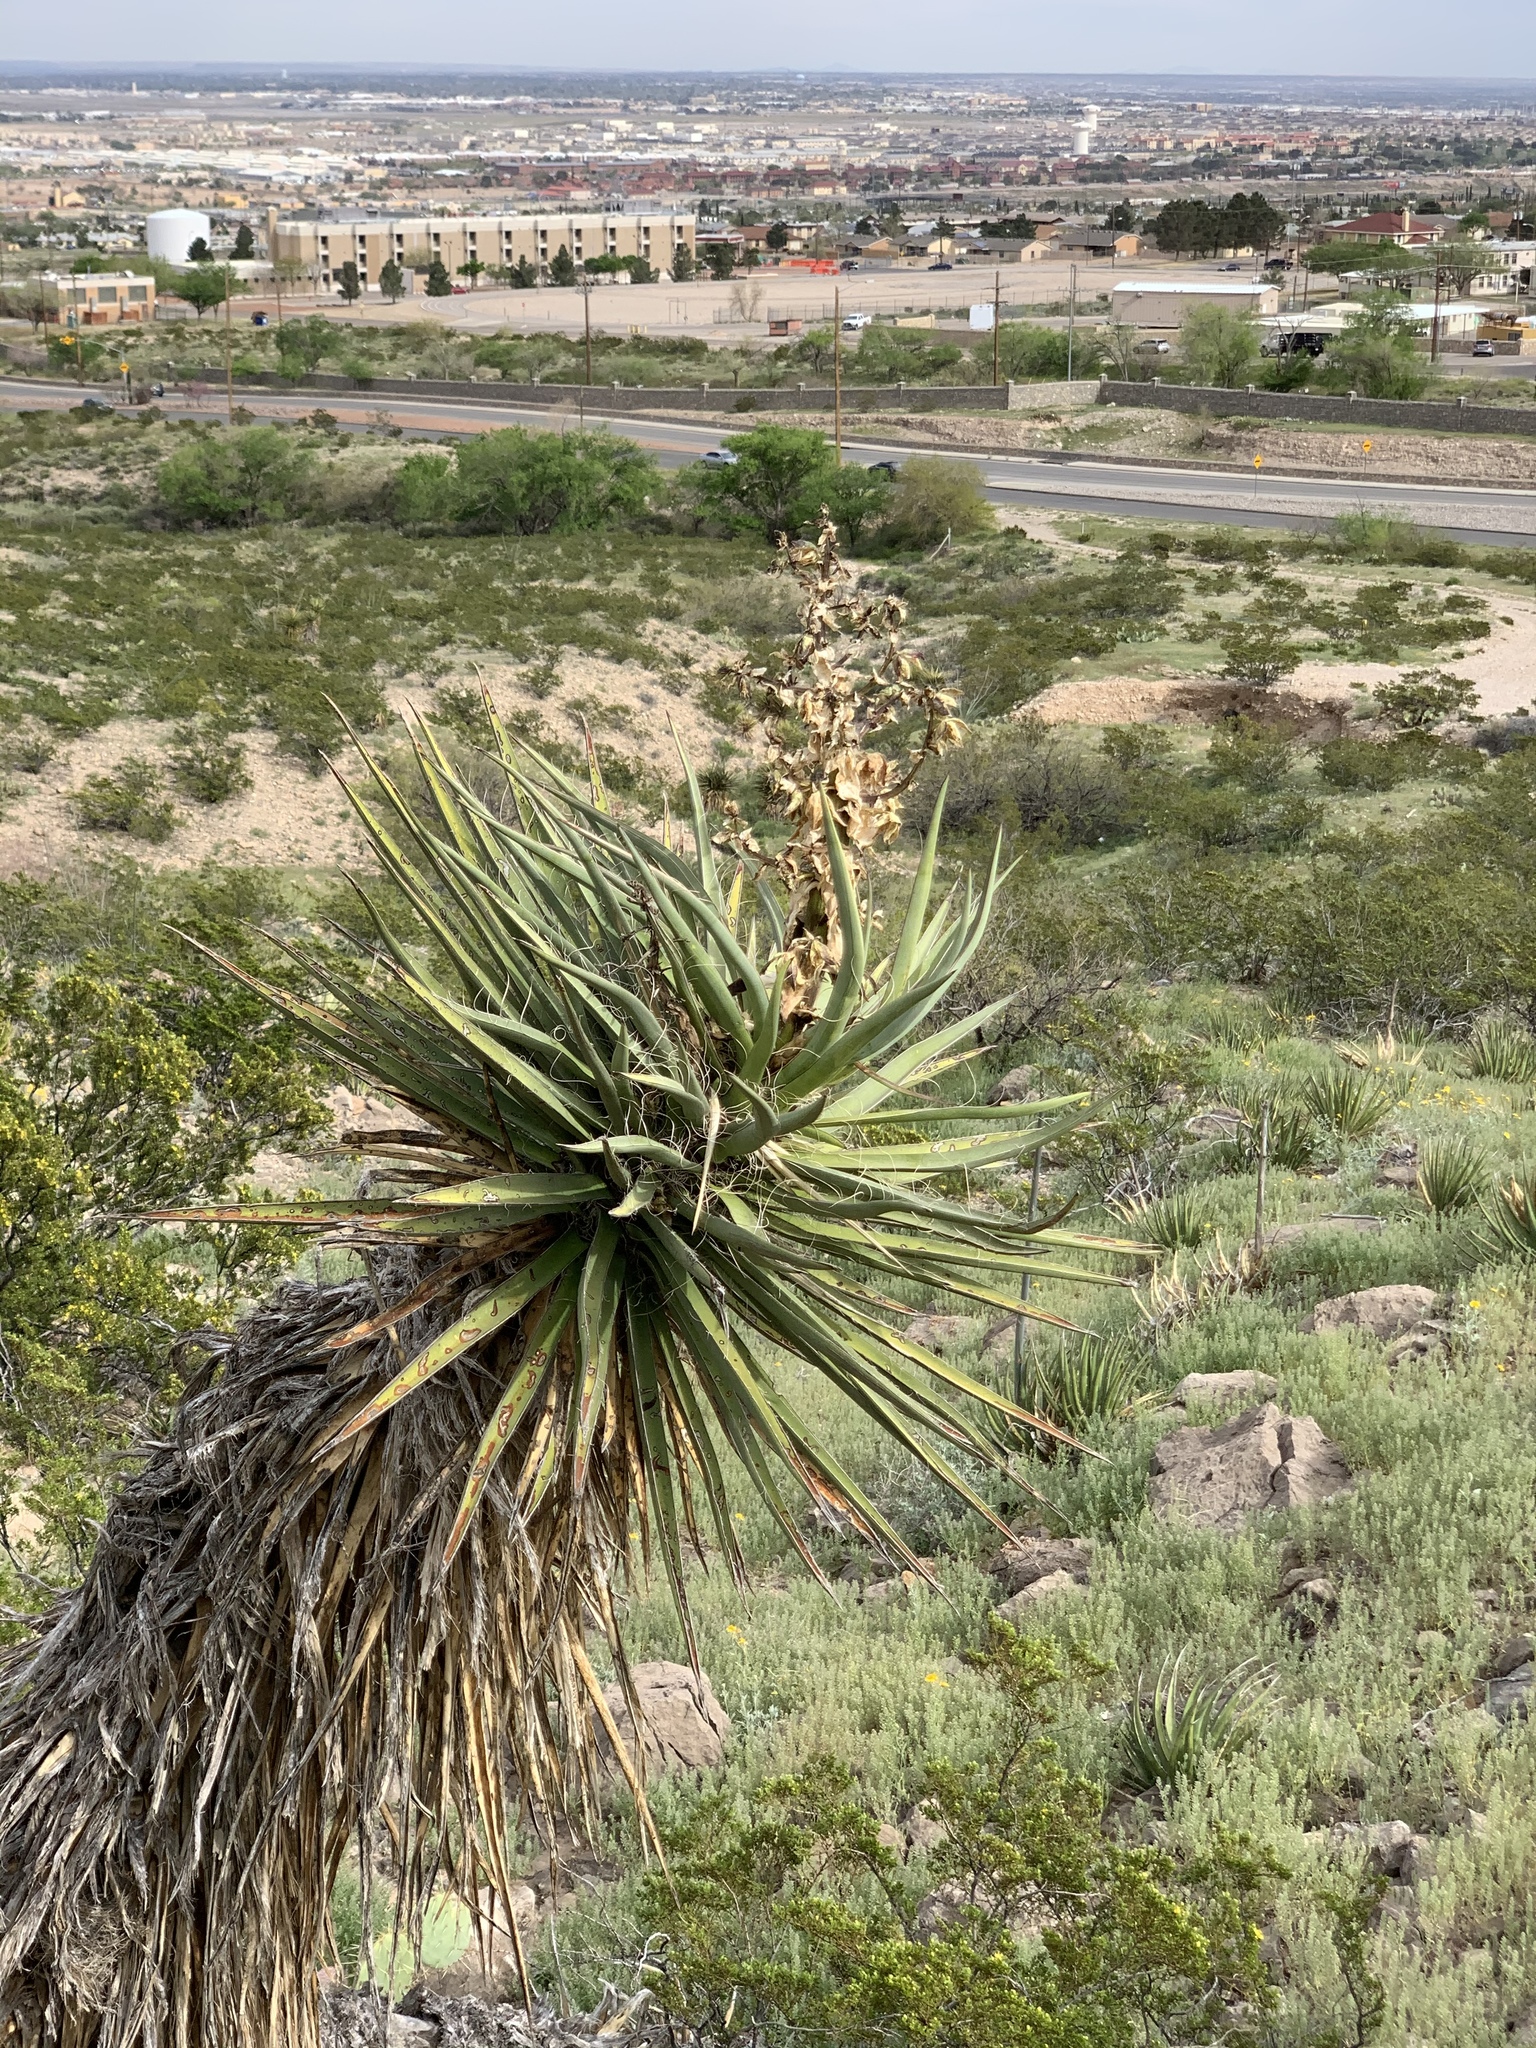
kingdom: Plantae
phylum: Tracheophyta
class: Liliopsida
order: Asparagales
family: Asparagaceae
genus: Yucca
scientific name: Yucca treculiana
